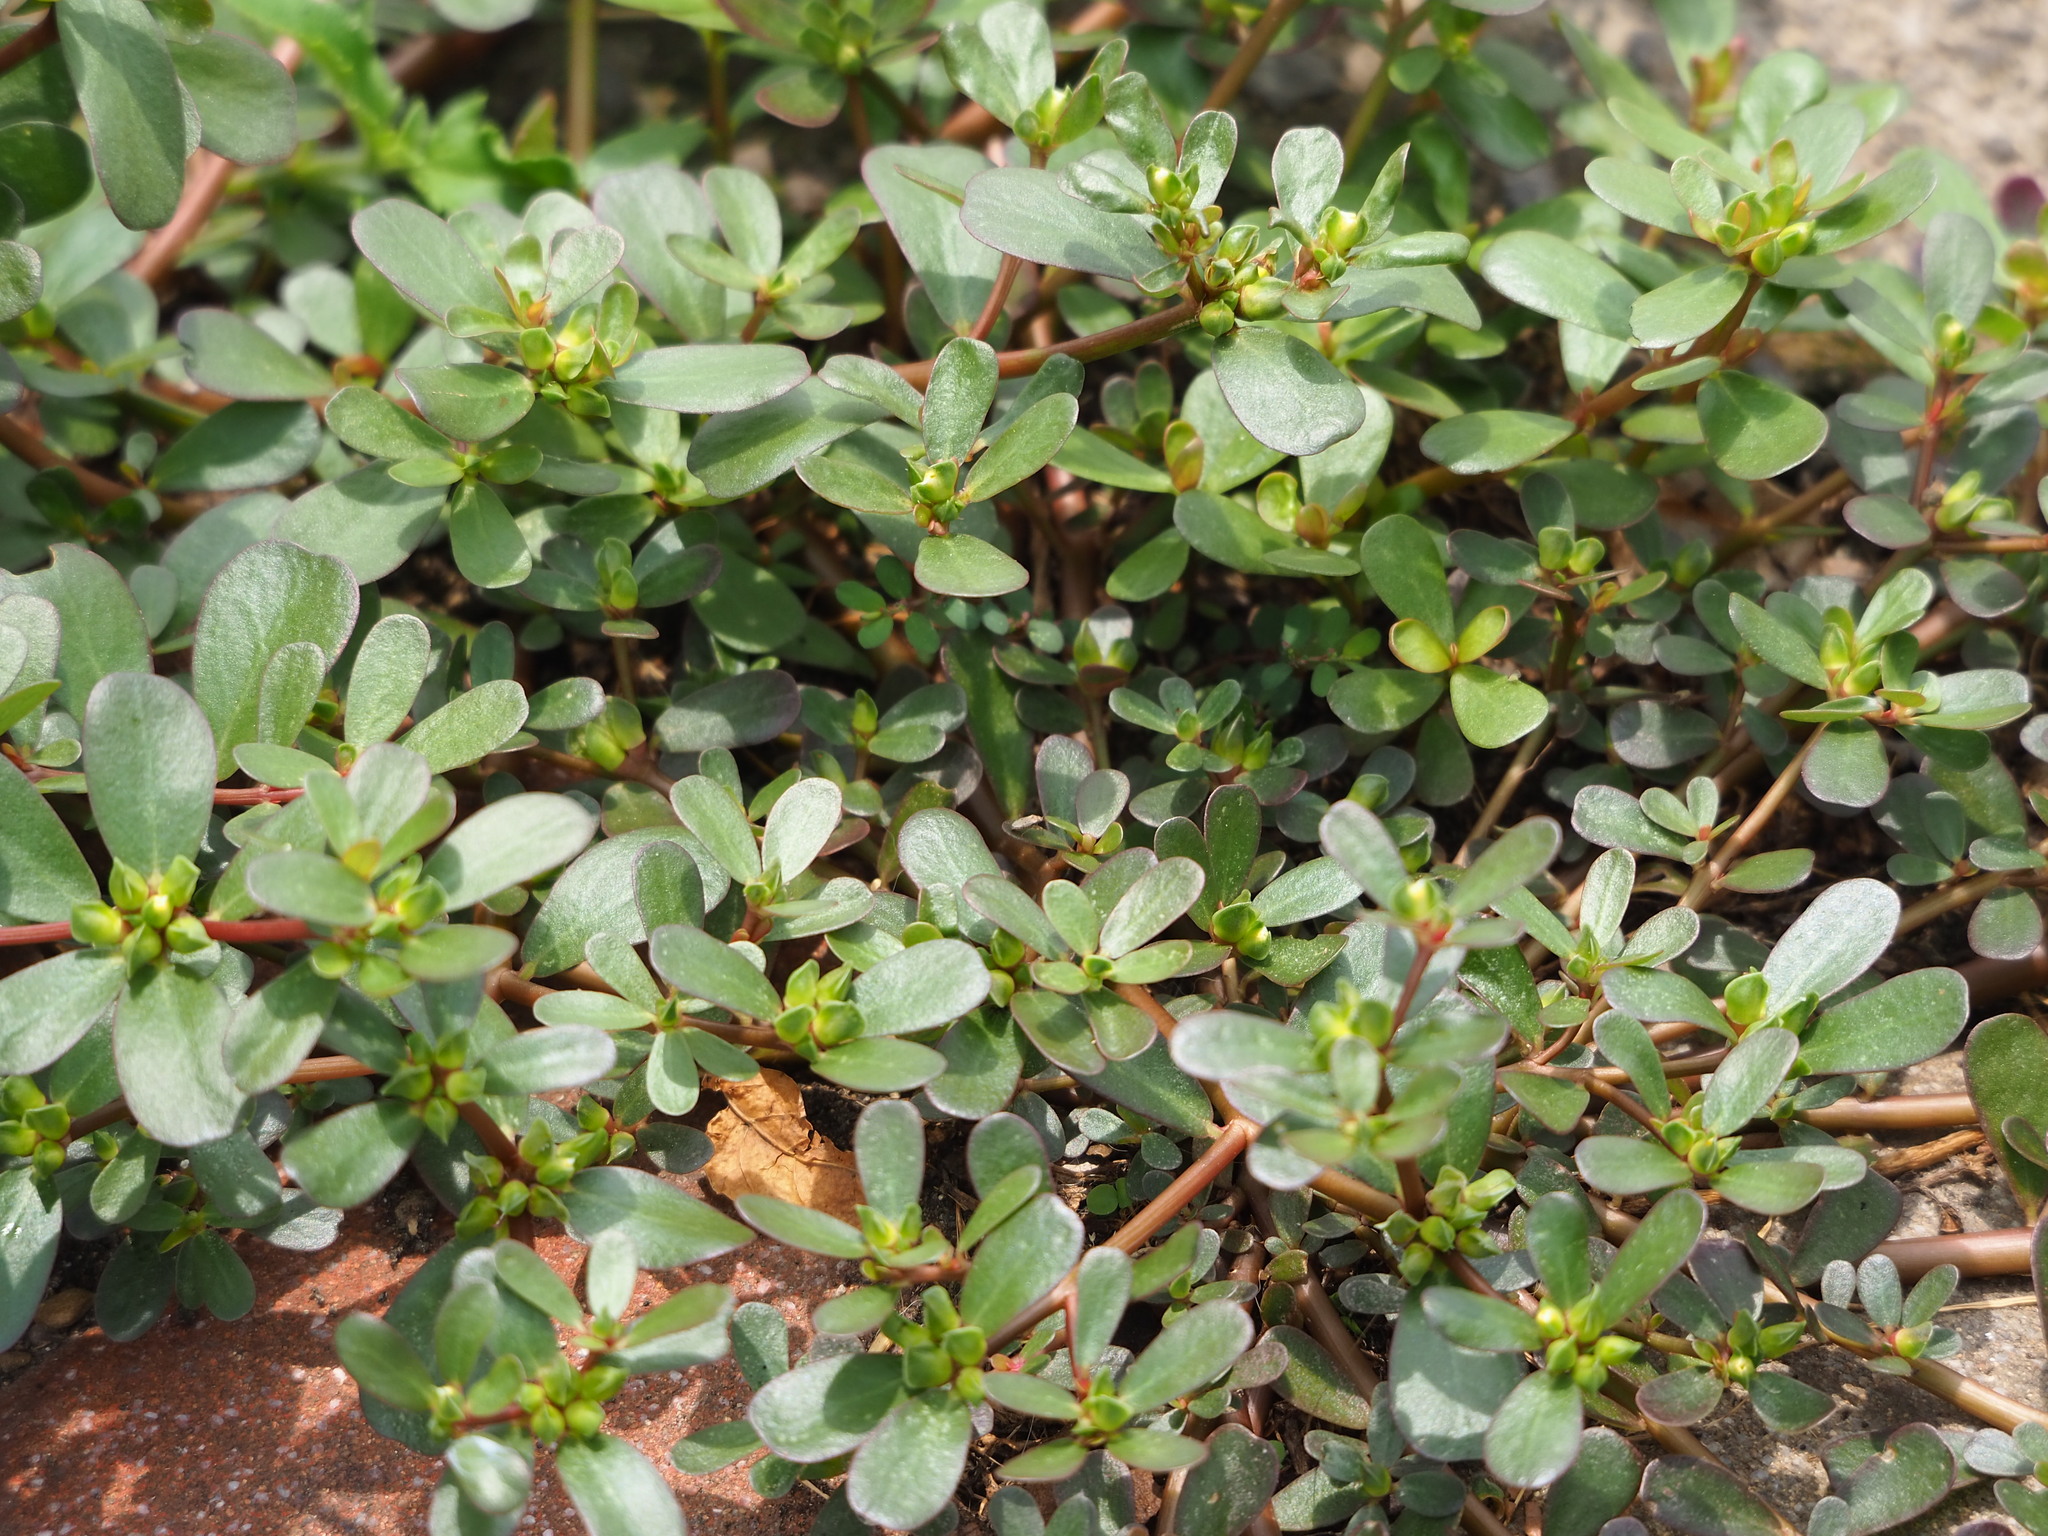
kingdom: Plantae
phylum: Tracheophyta
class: Magnoliopsida
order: Caryophyllales
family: Portulacaceae
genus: Portulaca
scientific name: Portulaca oleracea
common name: Common purslane
